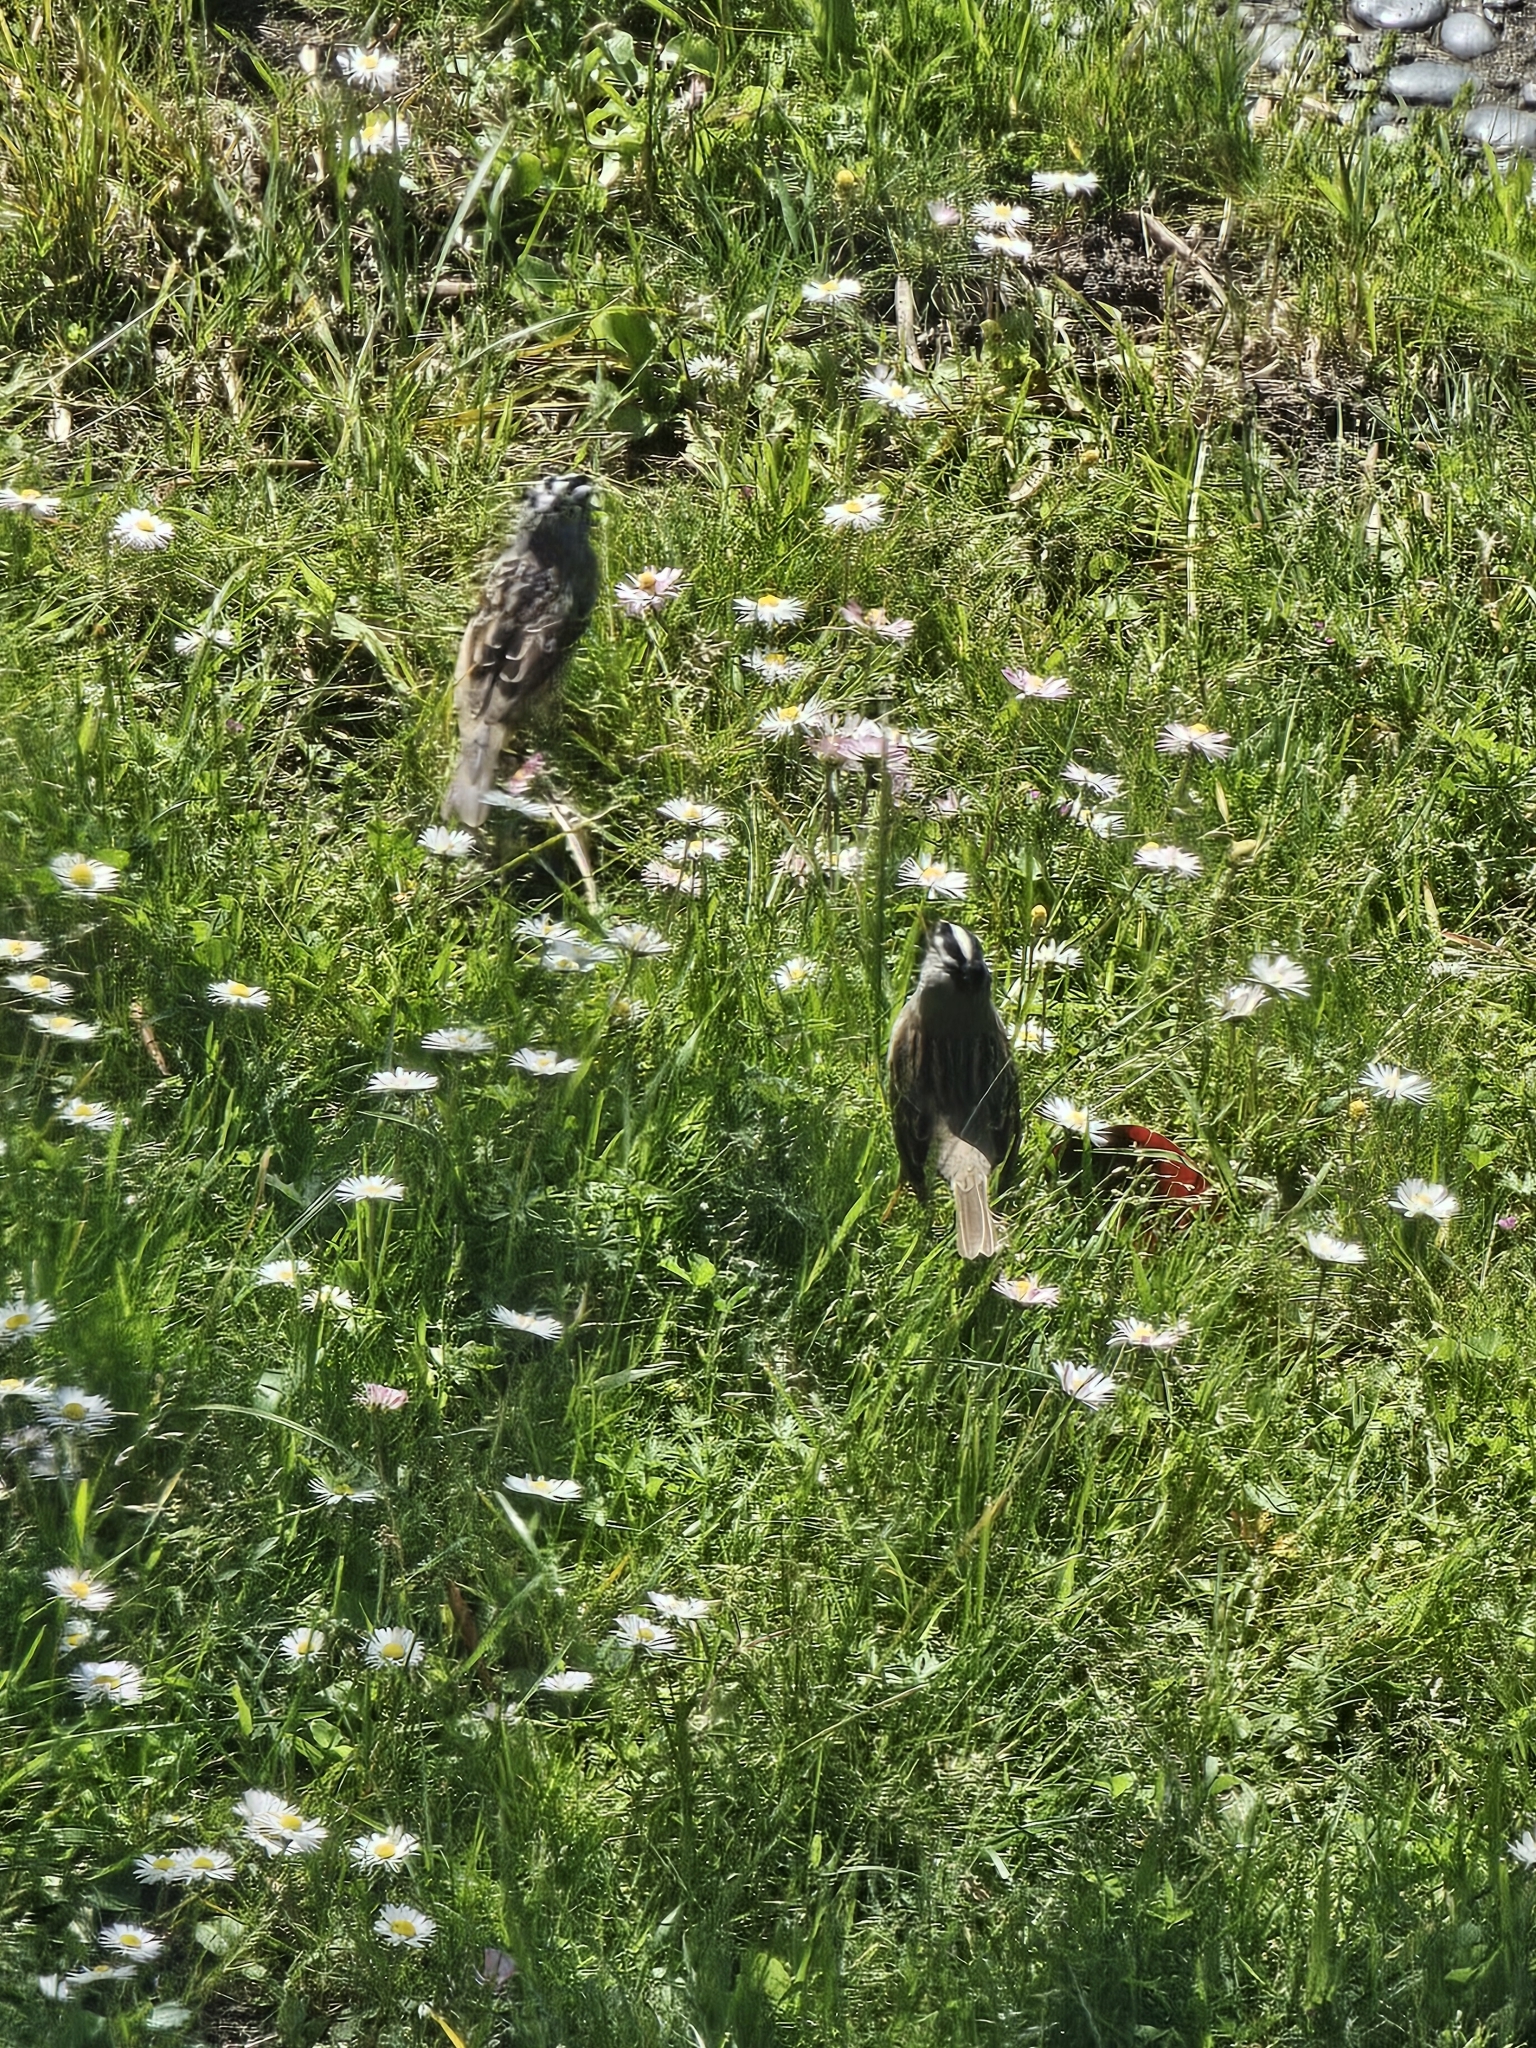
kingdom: Animalia
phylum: Chordata
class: Aves
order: Passeriformes
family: Passerellidae
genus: Zonotrichia
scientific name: Zonotrichia leucophrys
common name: White-crowned sparrow
